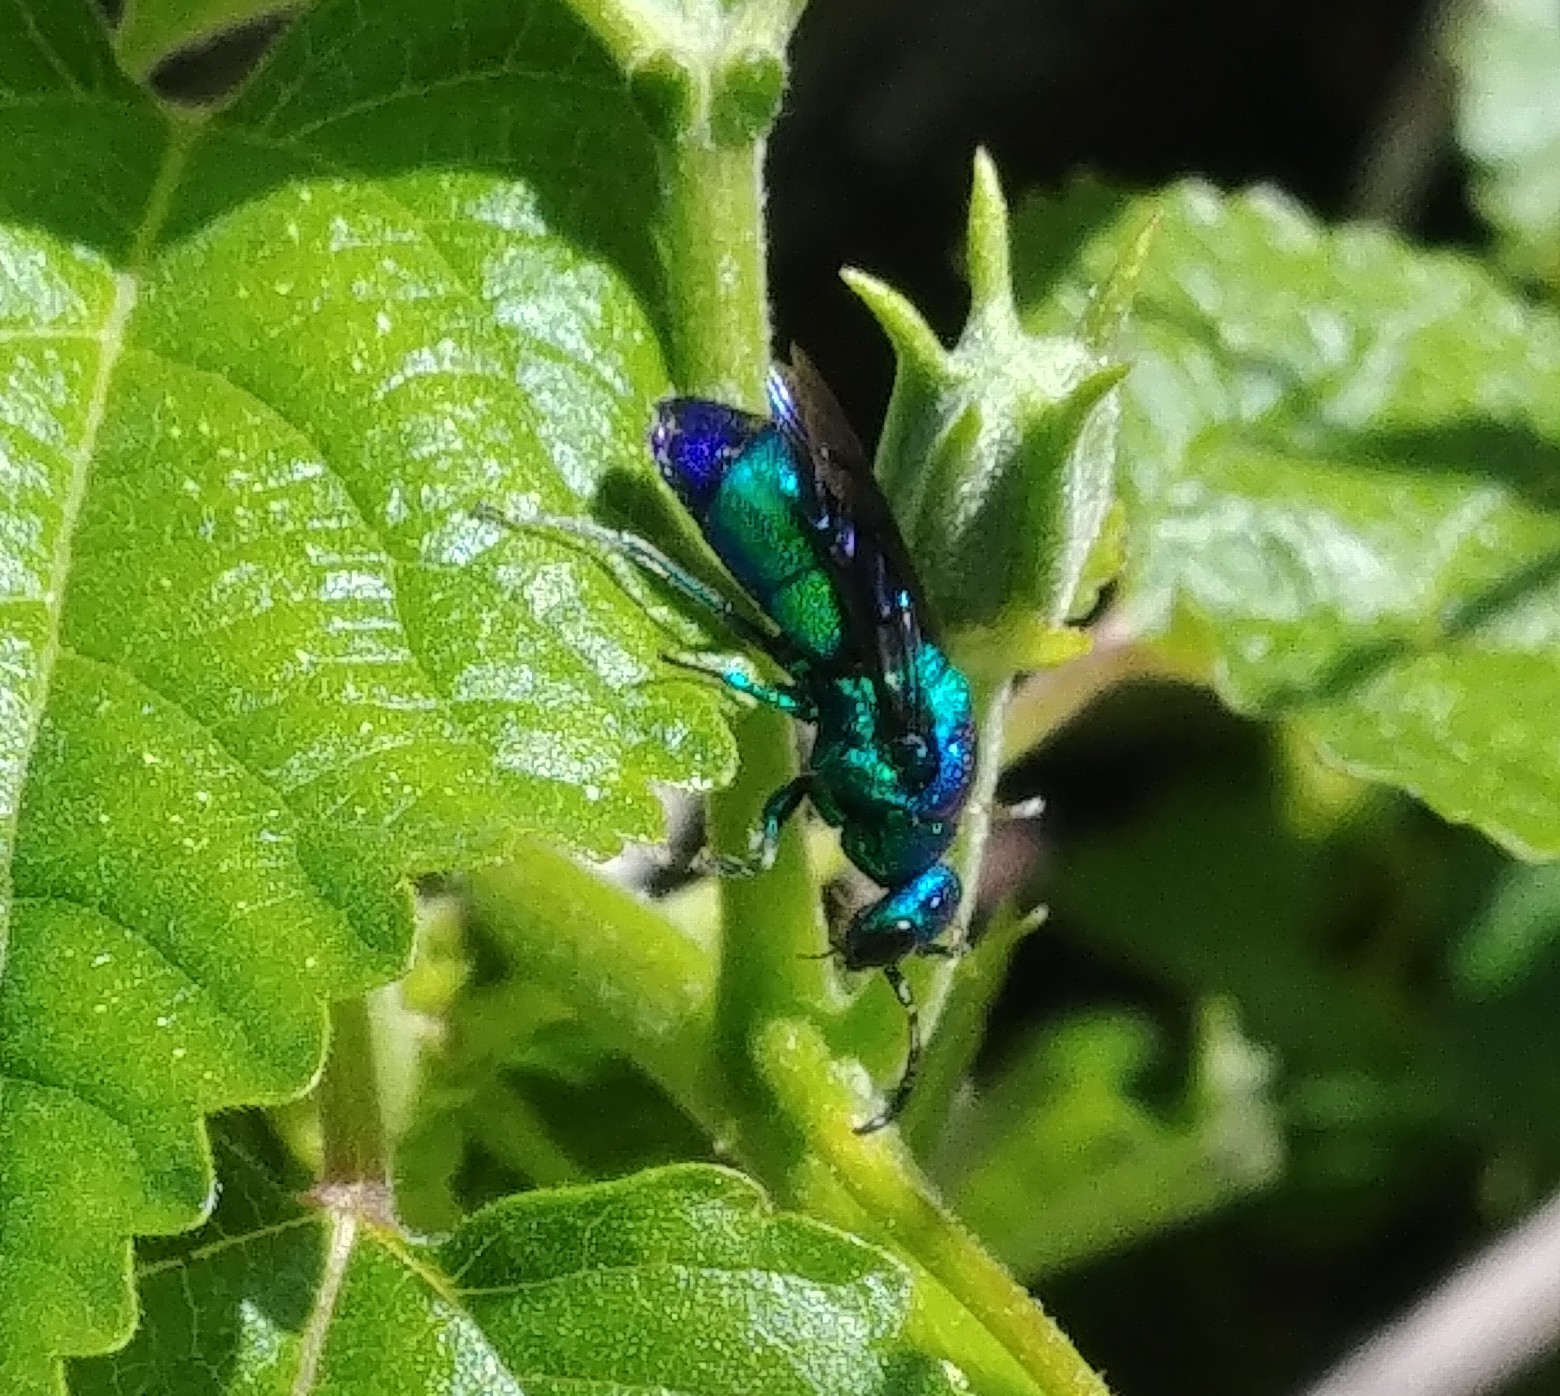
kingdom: Animalia
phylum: Arthropoda
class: Insecta
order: Hymenoptera
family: Chrysididae
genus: Chrysis
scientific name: Chrysis angolensis
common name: Cuckoo wasp
